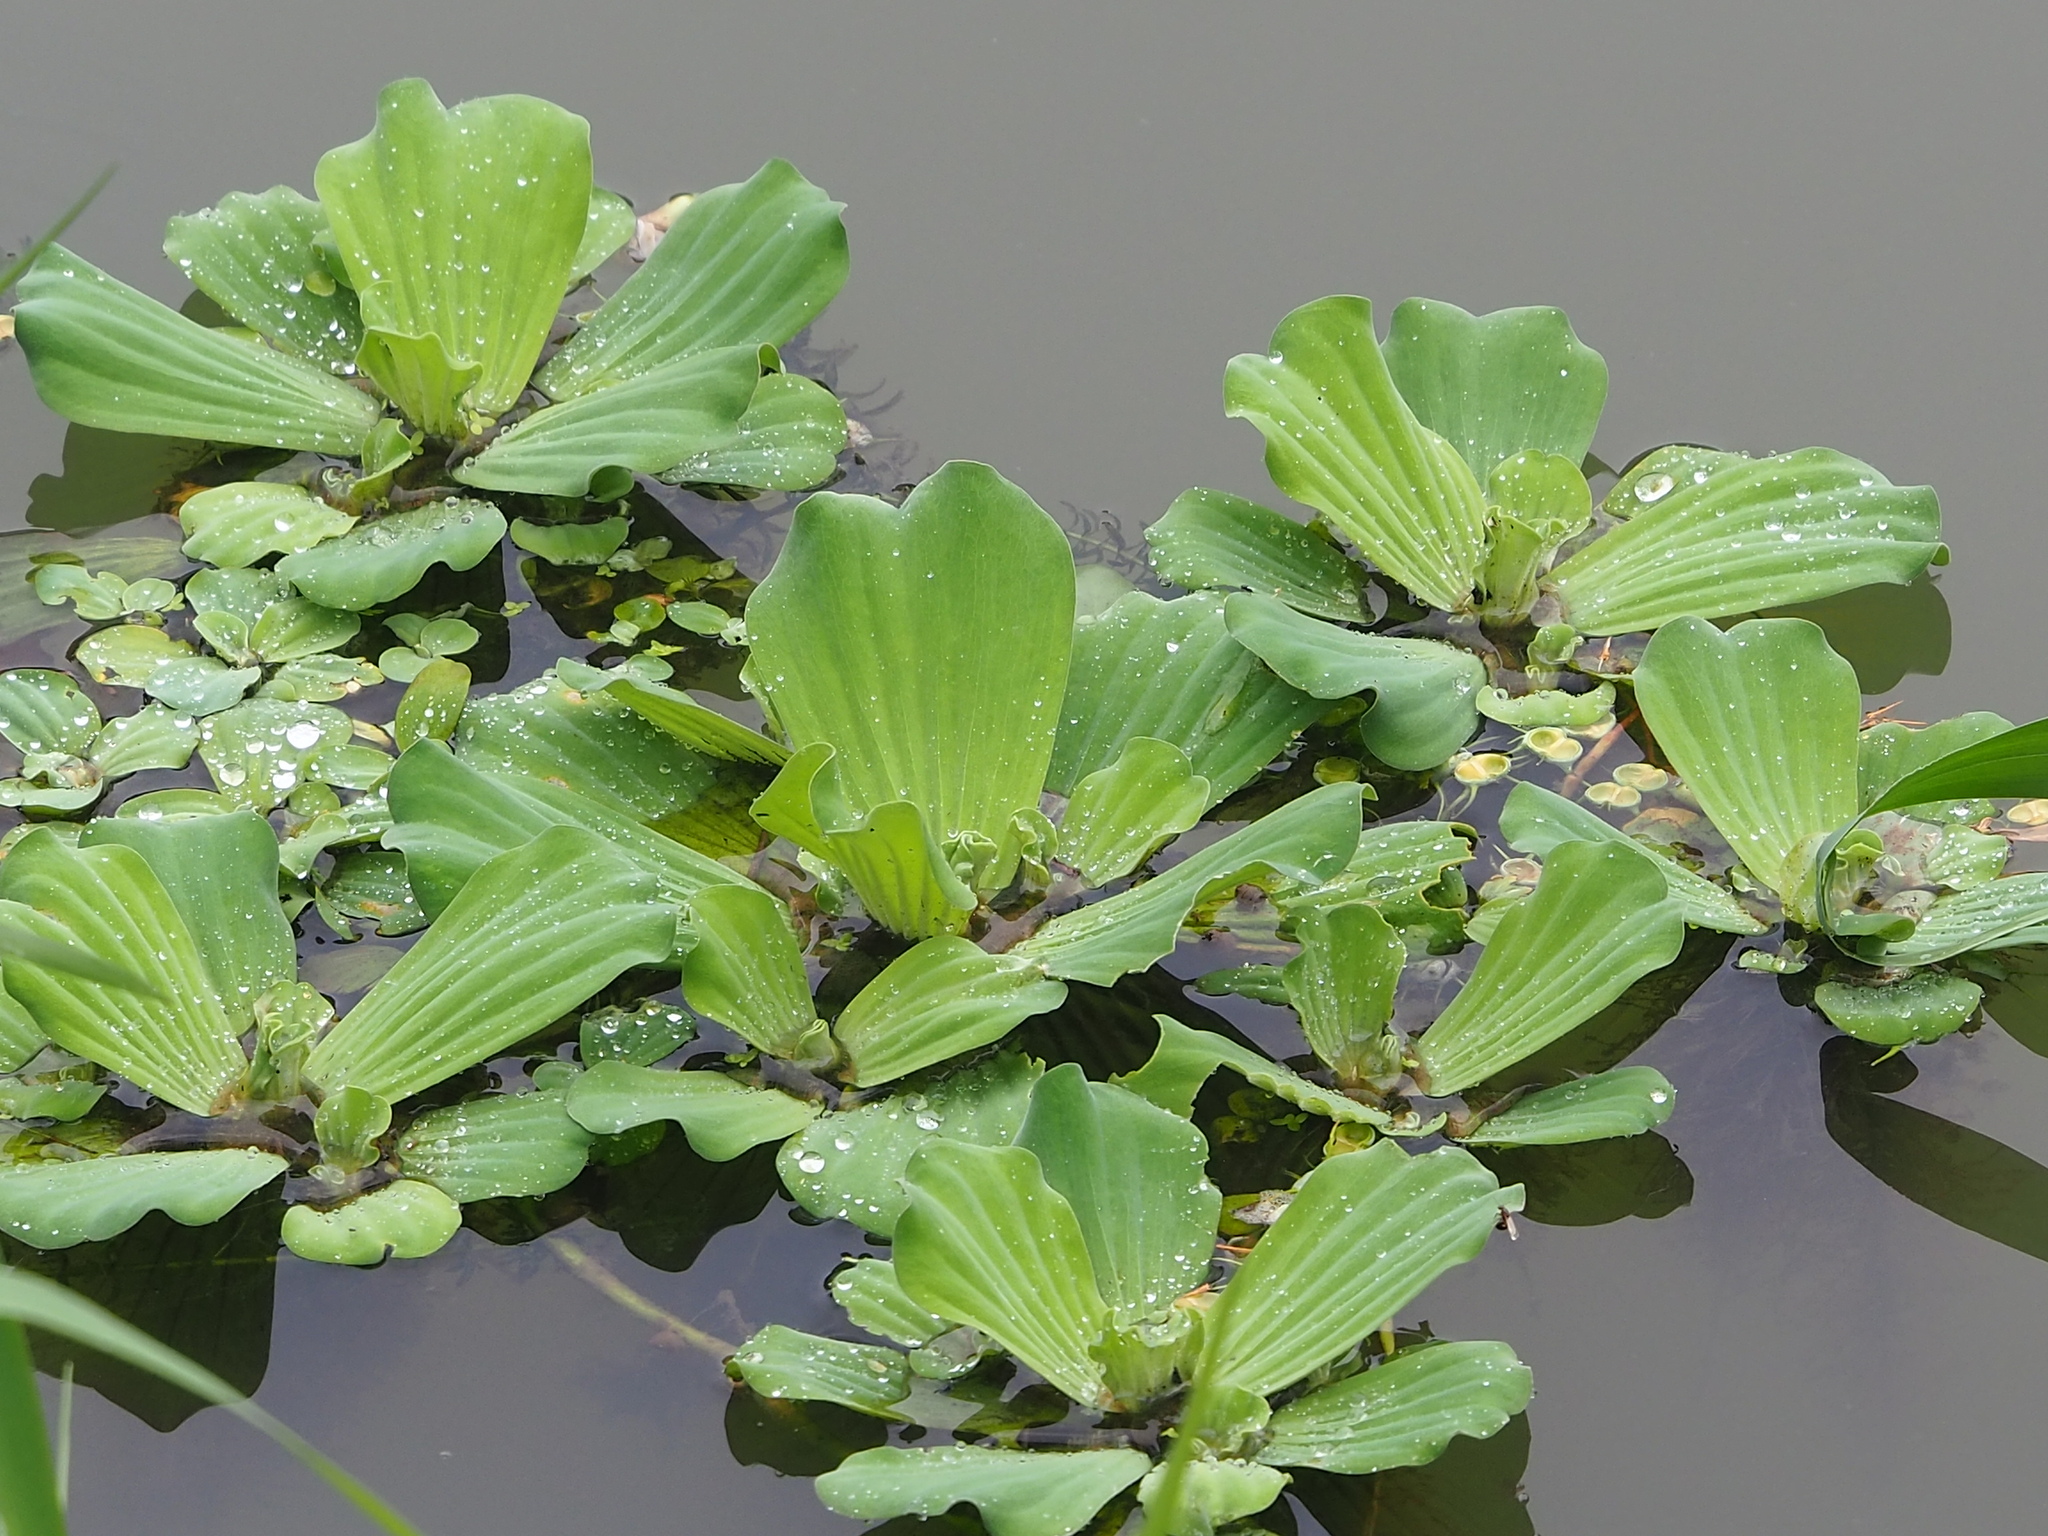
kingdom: Plantae
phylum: Tracheophyta
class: Liliopsida
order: Alismatales
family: Araceae
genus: Pistia
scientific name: Pistia stratiotes
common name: Water lettuce
